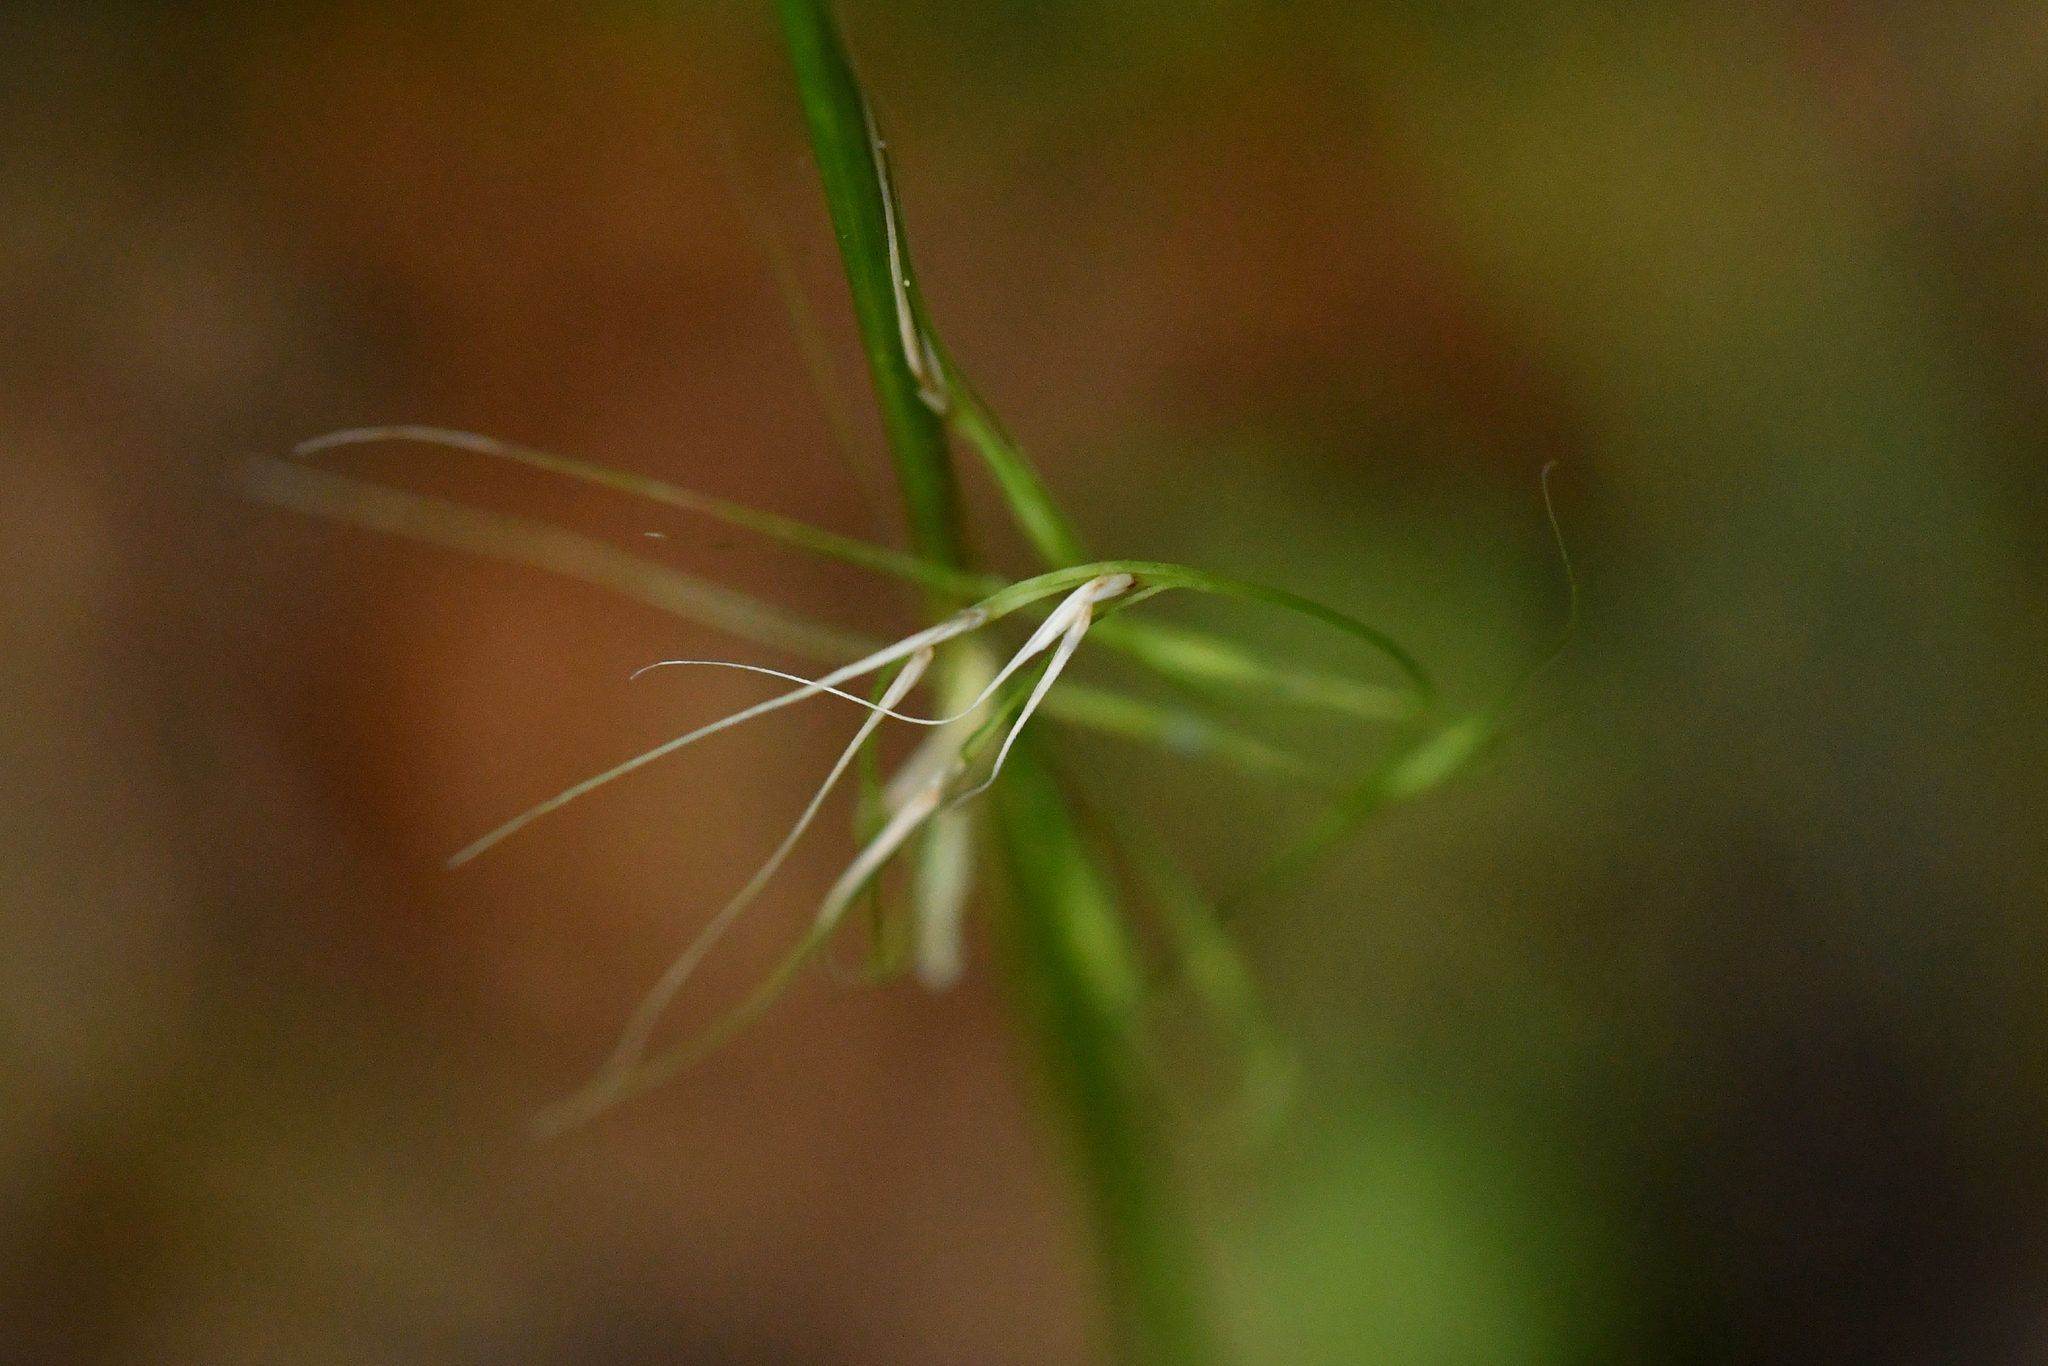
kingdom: Plantae
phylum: Tracheophyta
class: Liliopsida
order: Poales
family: Poaceae
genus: Ehrharta
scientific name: Ehrharta diplax
